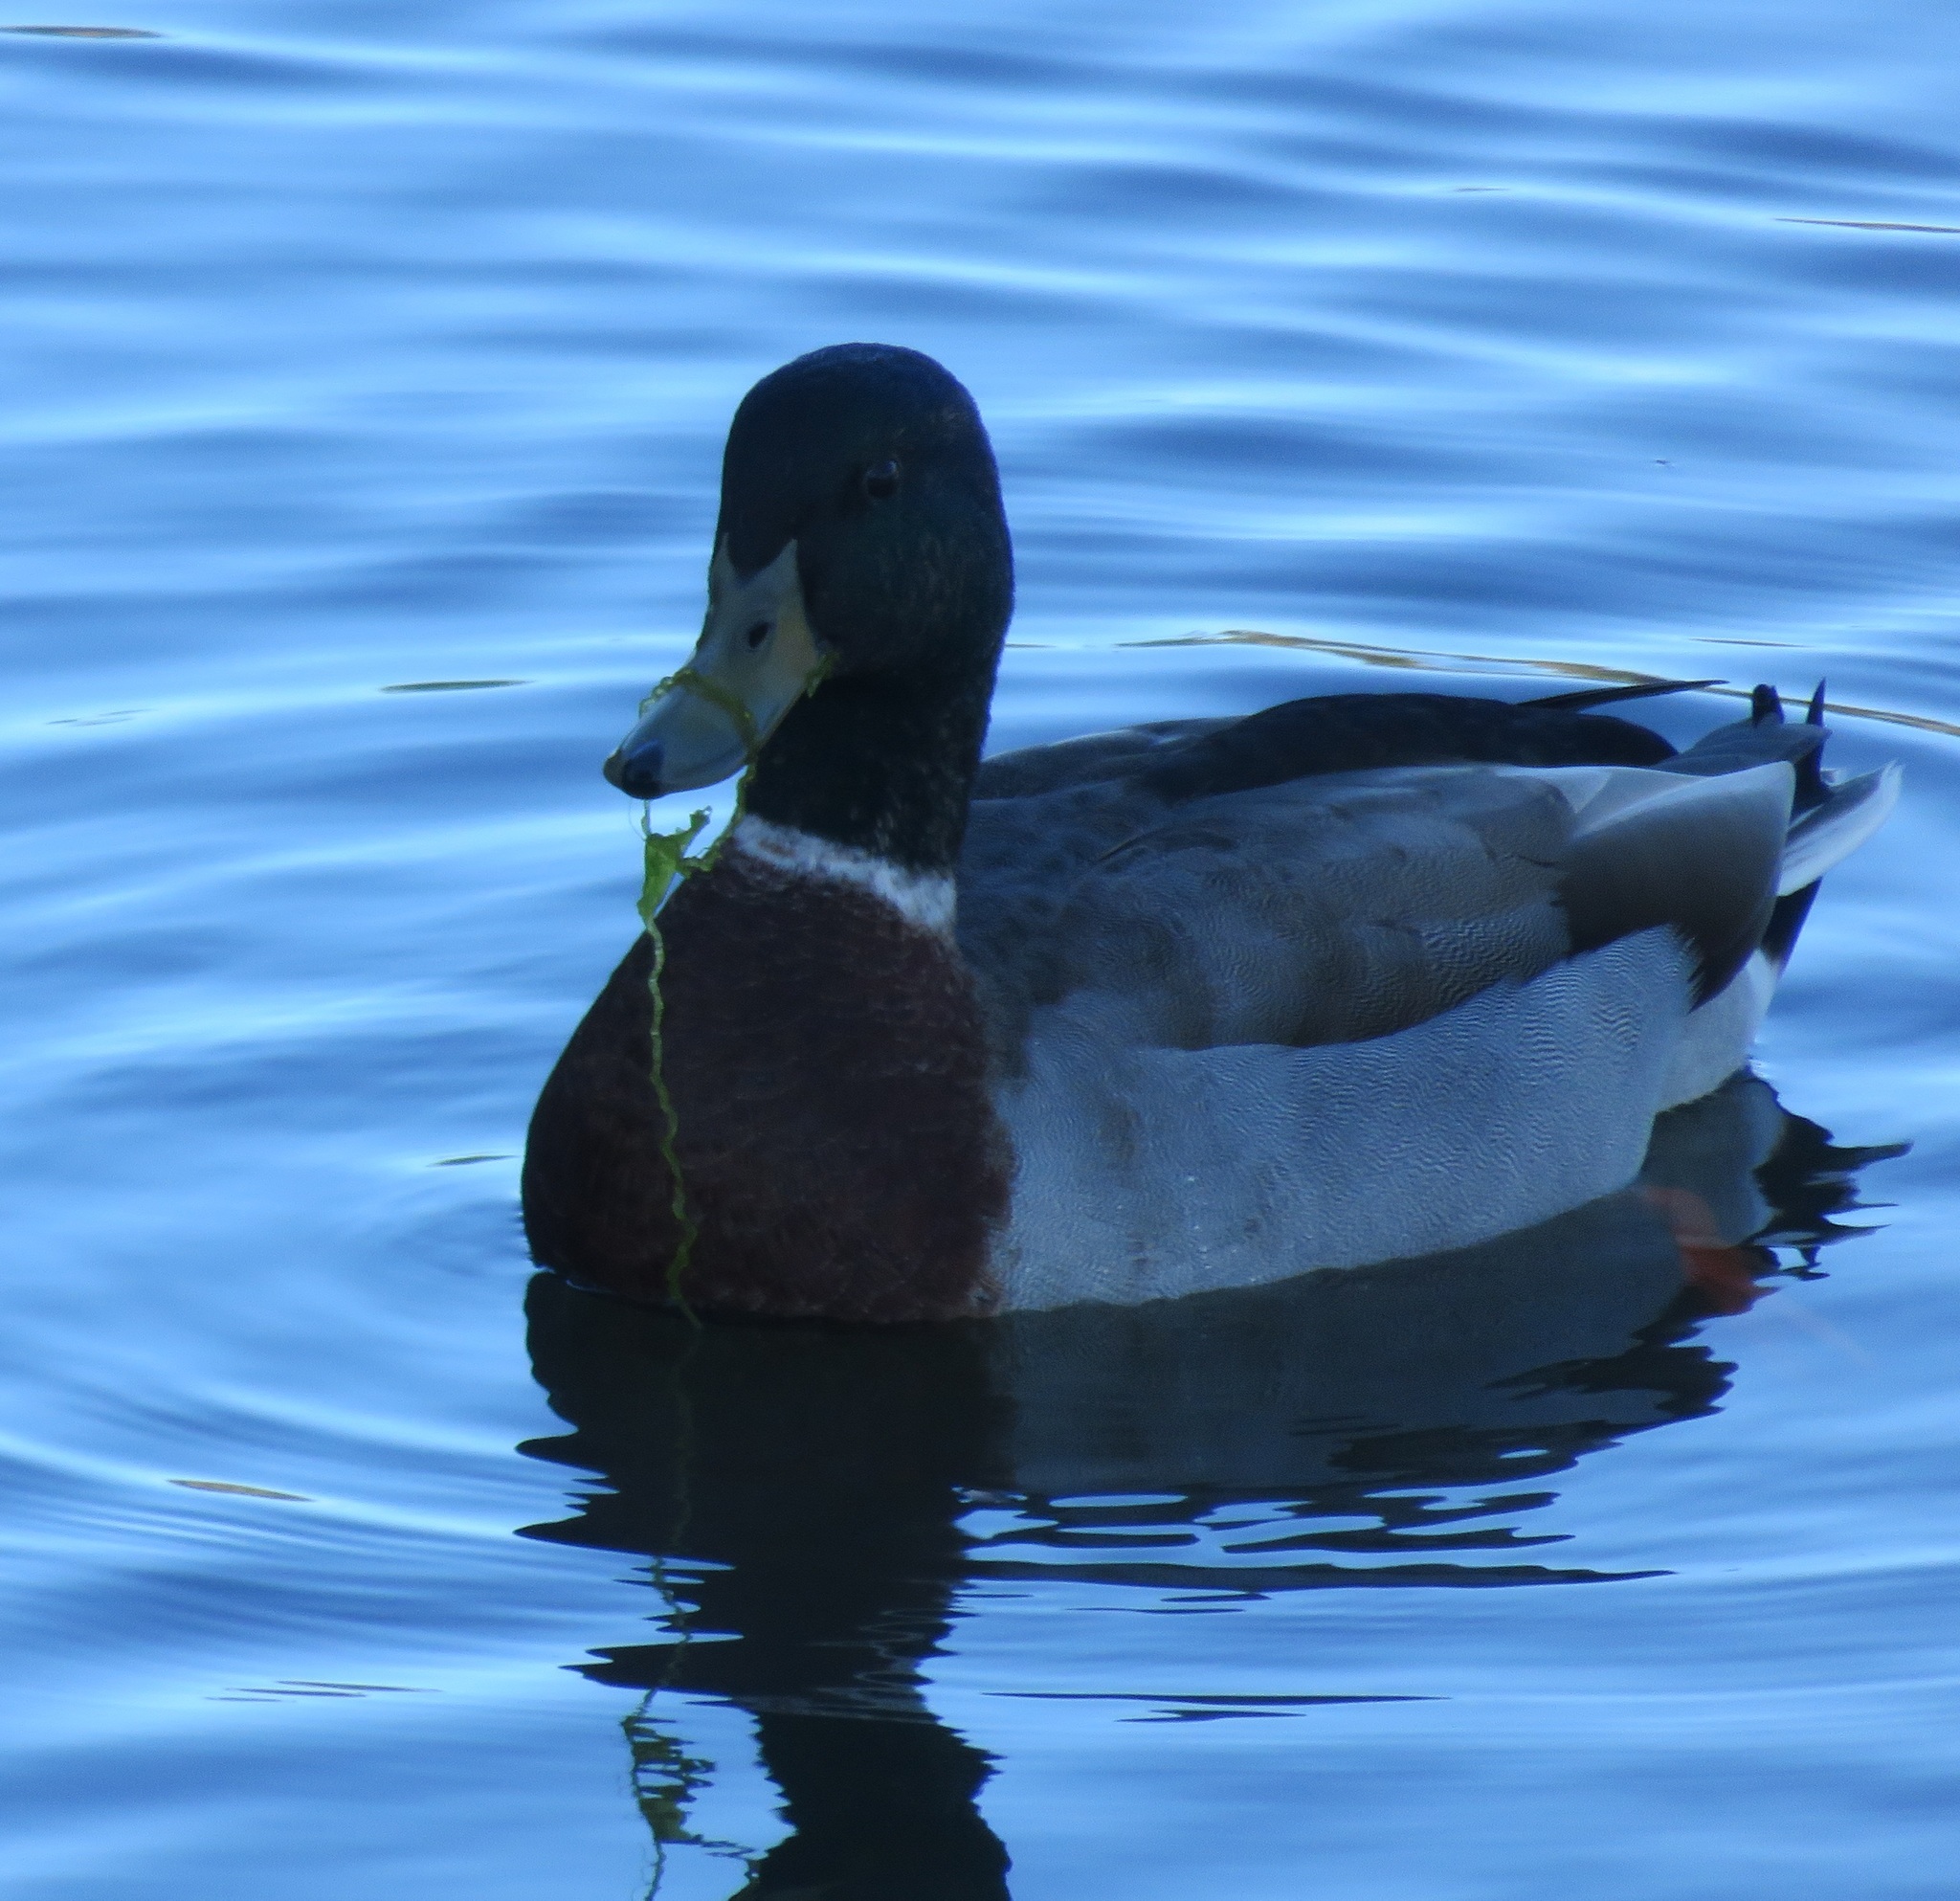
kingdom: Animalia
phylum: Chordata
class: Aves
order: Anseriformes
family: Anatidae
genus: Anas
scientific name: Anas platyrhynchos
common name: Mallard
